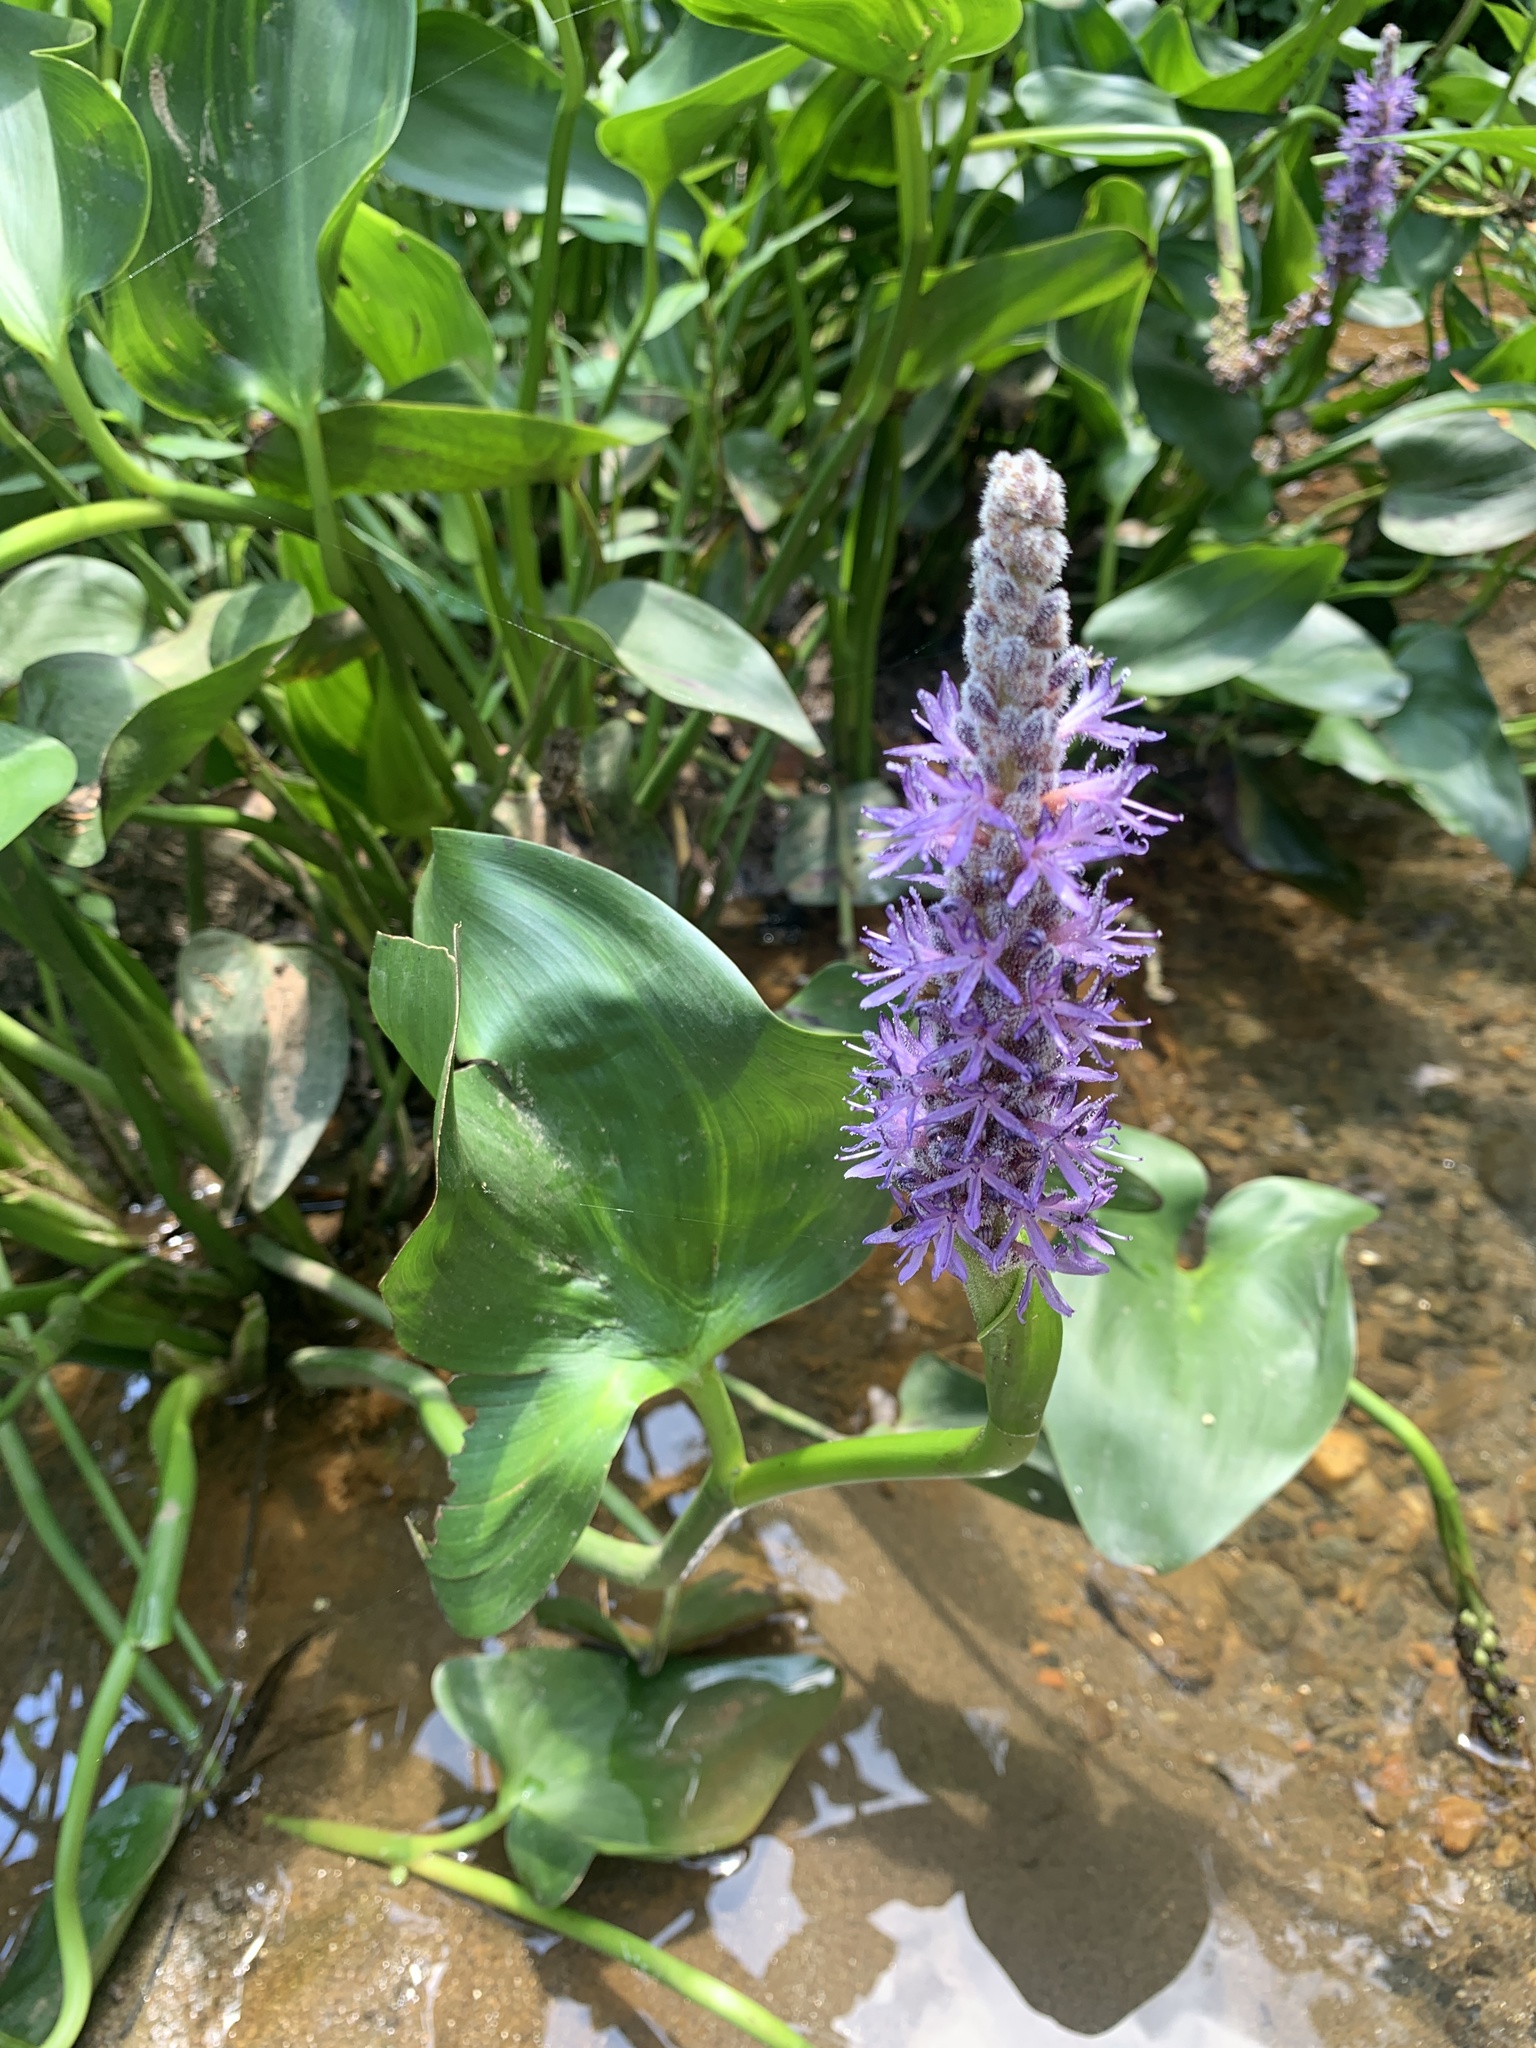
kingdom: Plantae
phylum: Tracheophyta
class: Liliopsida
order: Commelinales
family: Pontederiaceae
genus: Pontederia
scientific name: Pontederia cordata
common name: Pickerelweed
